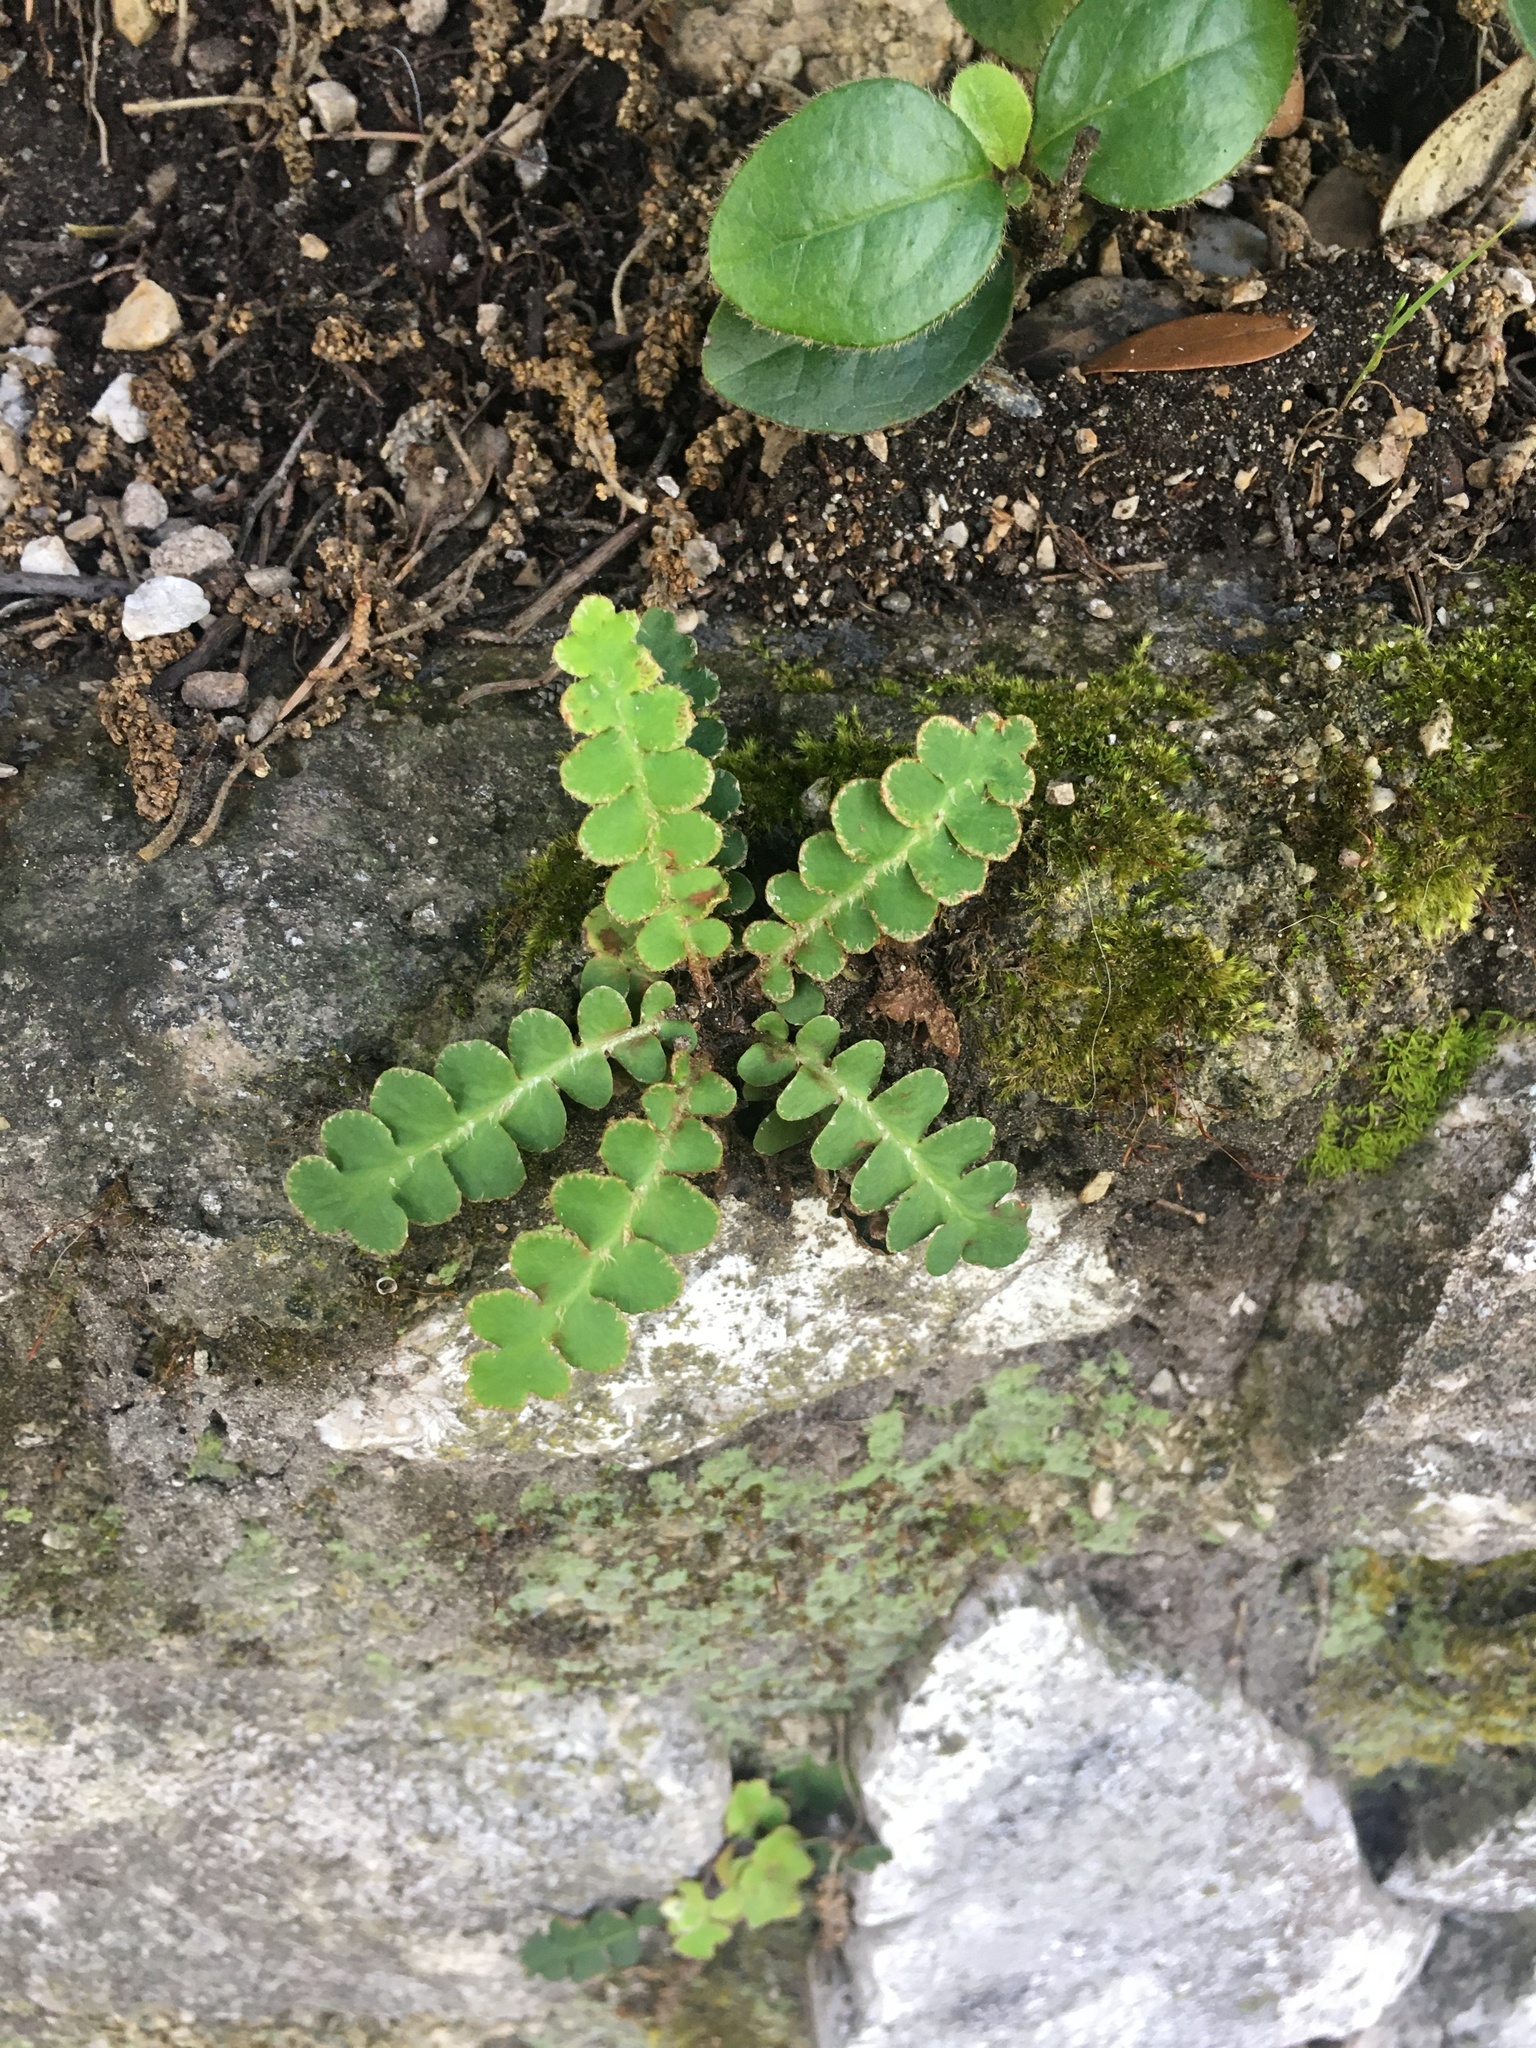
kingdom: Plantae
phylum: Tracheophyta
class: Polypodiopsida
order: Polypodiales
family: Aspleniaceae
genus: Asplenium
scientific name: Asplenium ceterach
